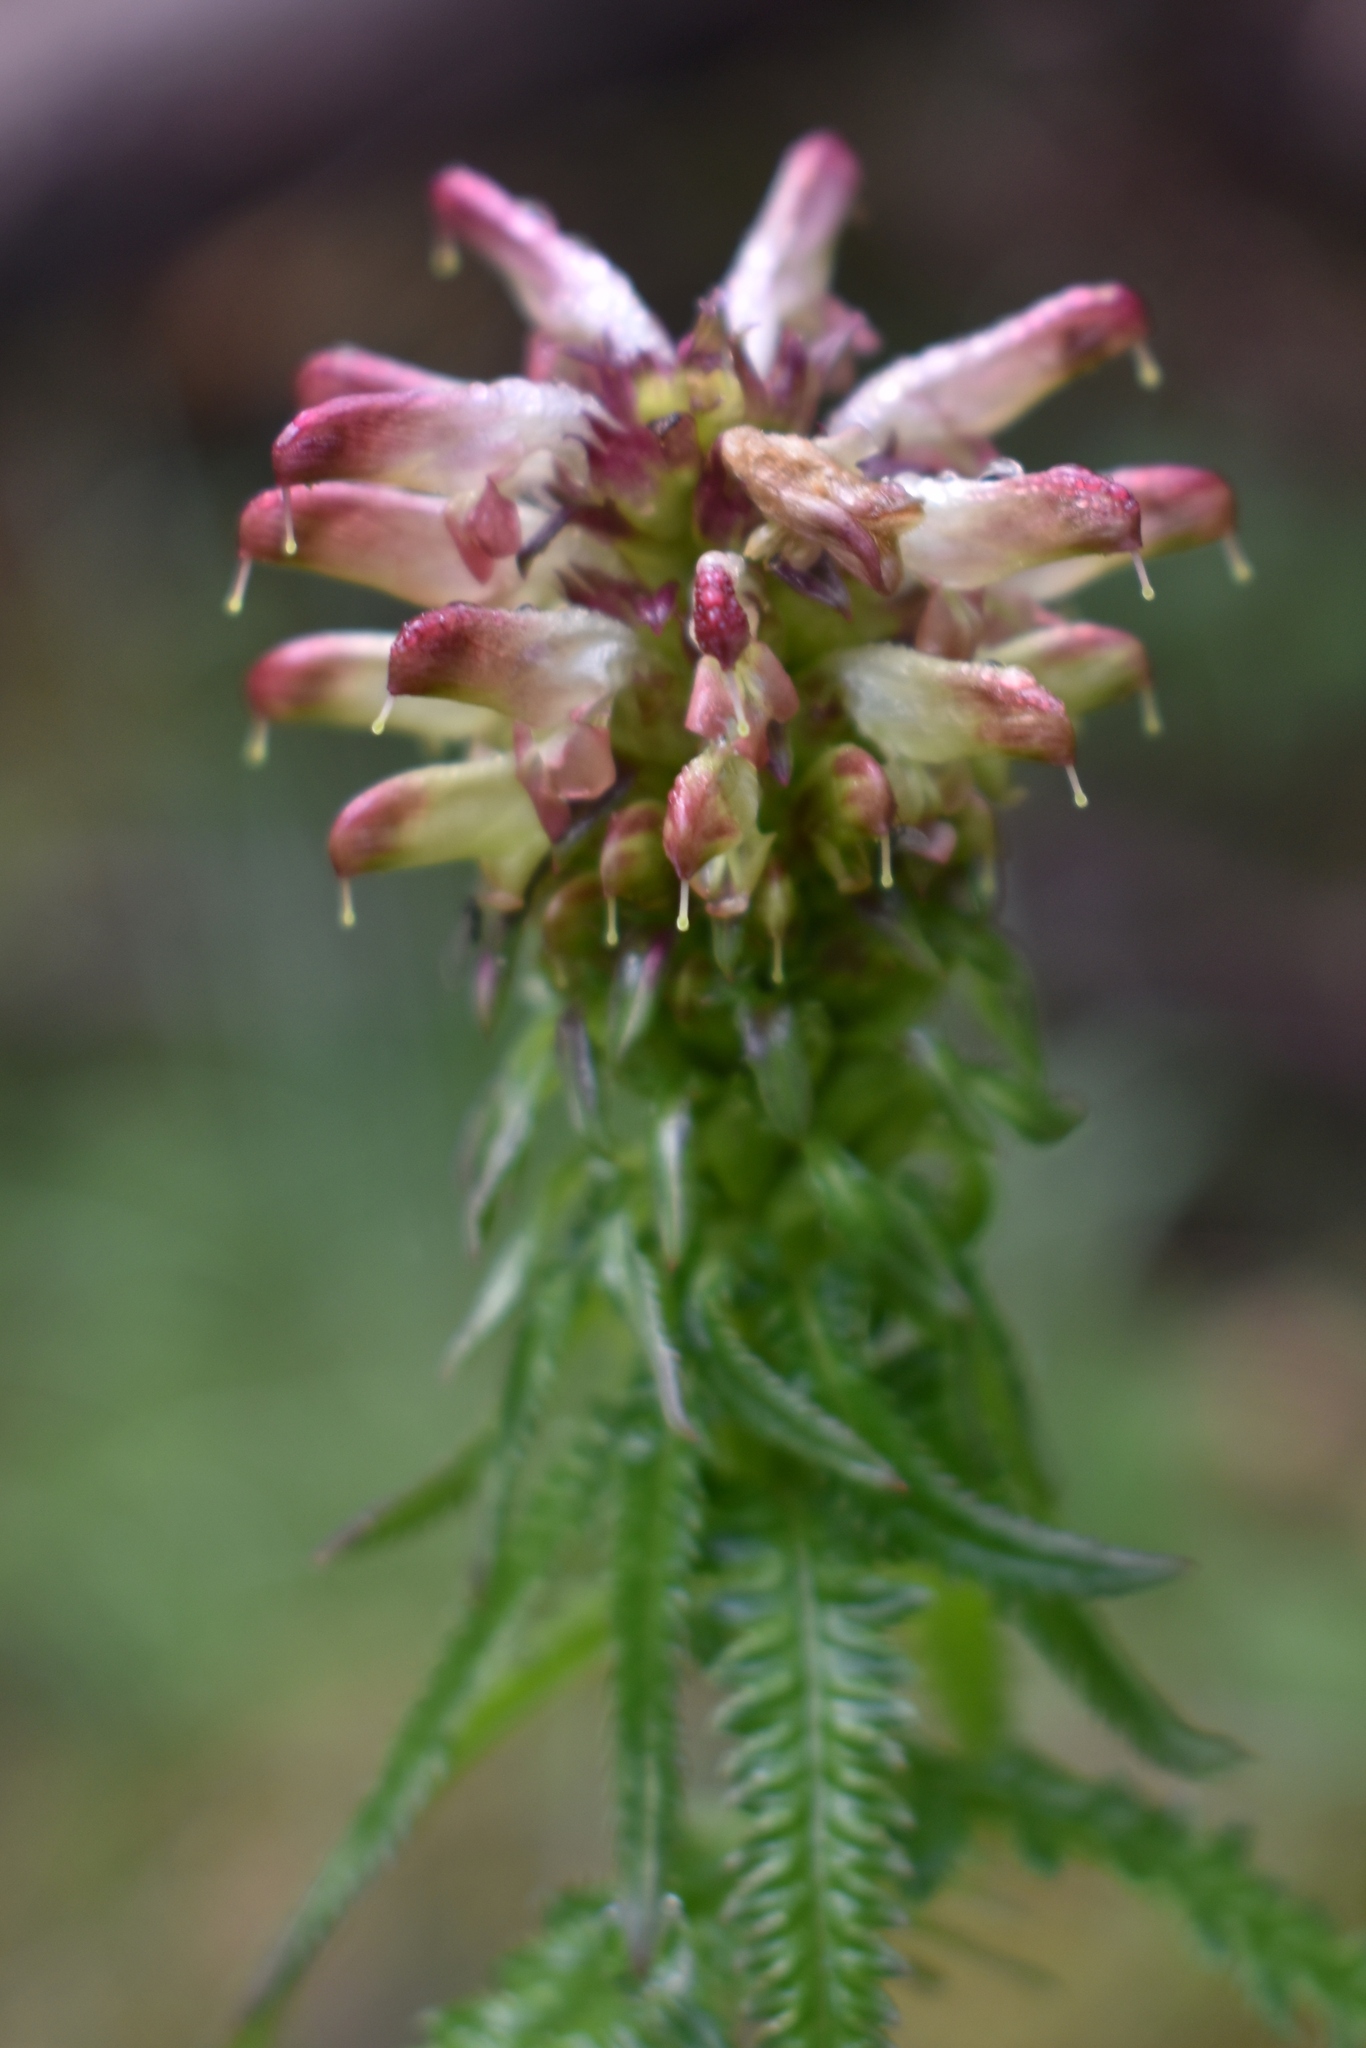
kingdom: Plantae
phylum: Tracheophyta
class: Magnoliopsida
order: Lamiales
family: Orobanchaceae
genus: Pedicularis
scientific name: Pedicularis recutita
